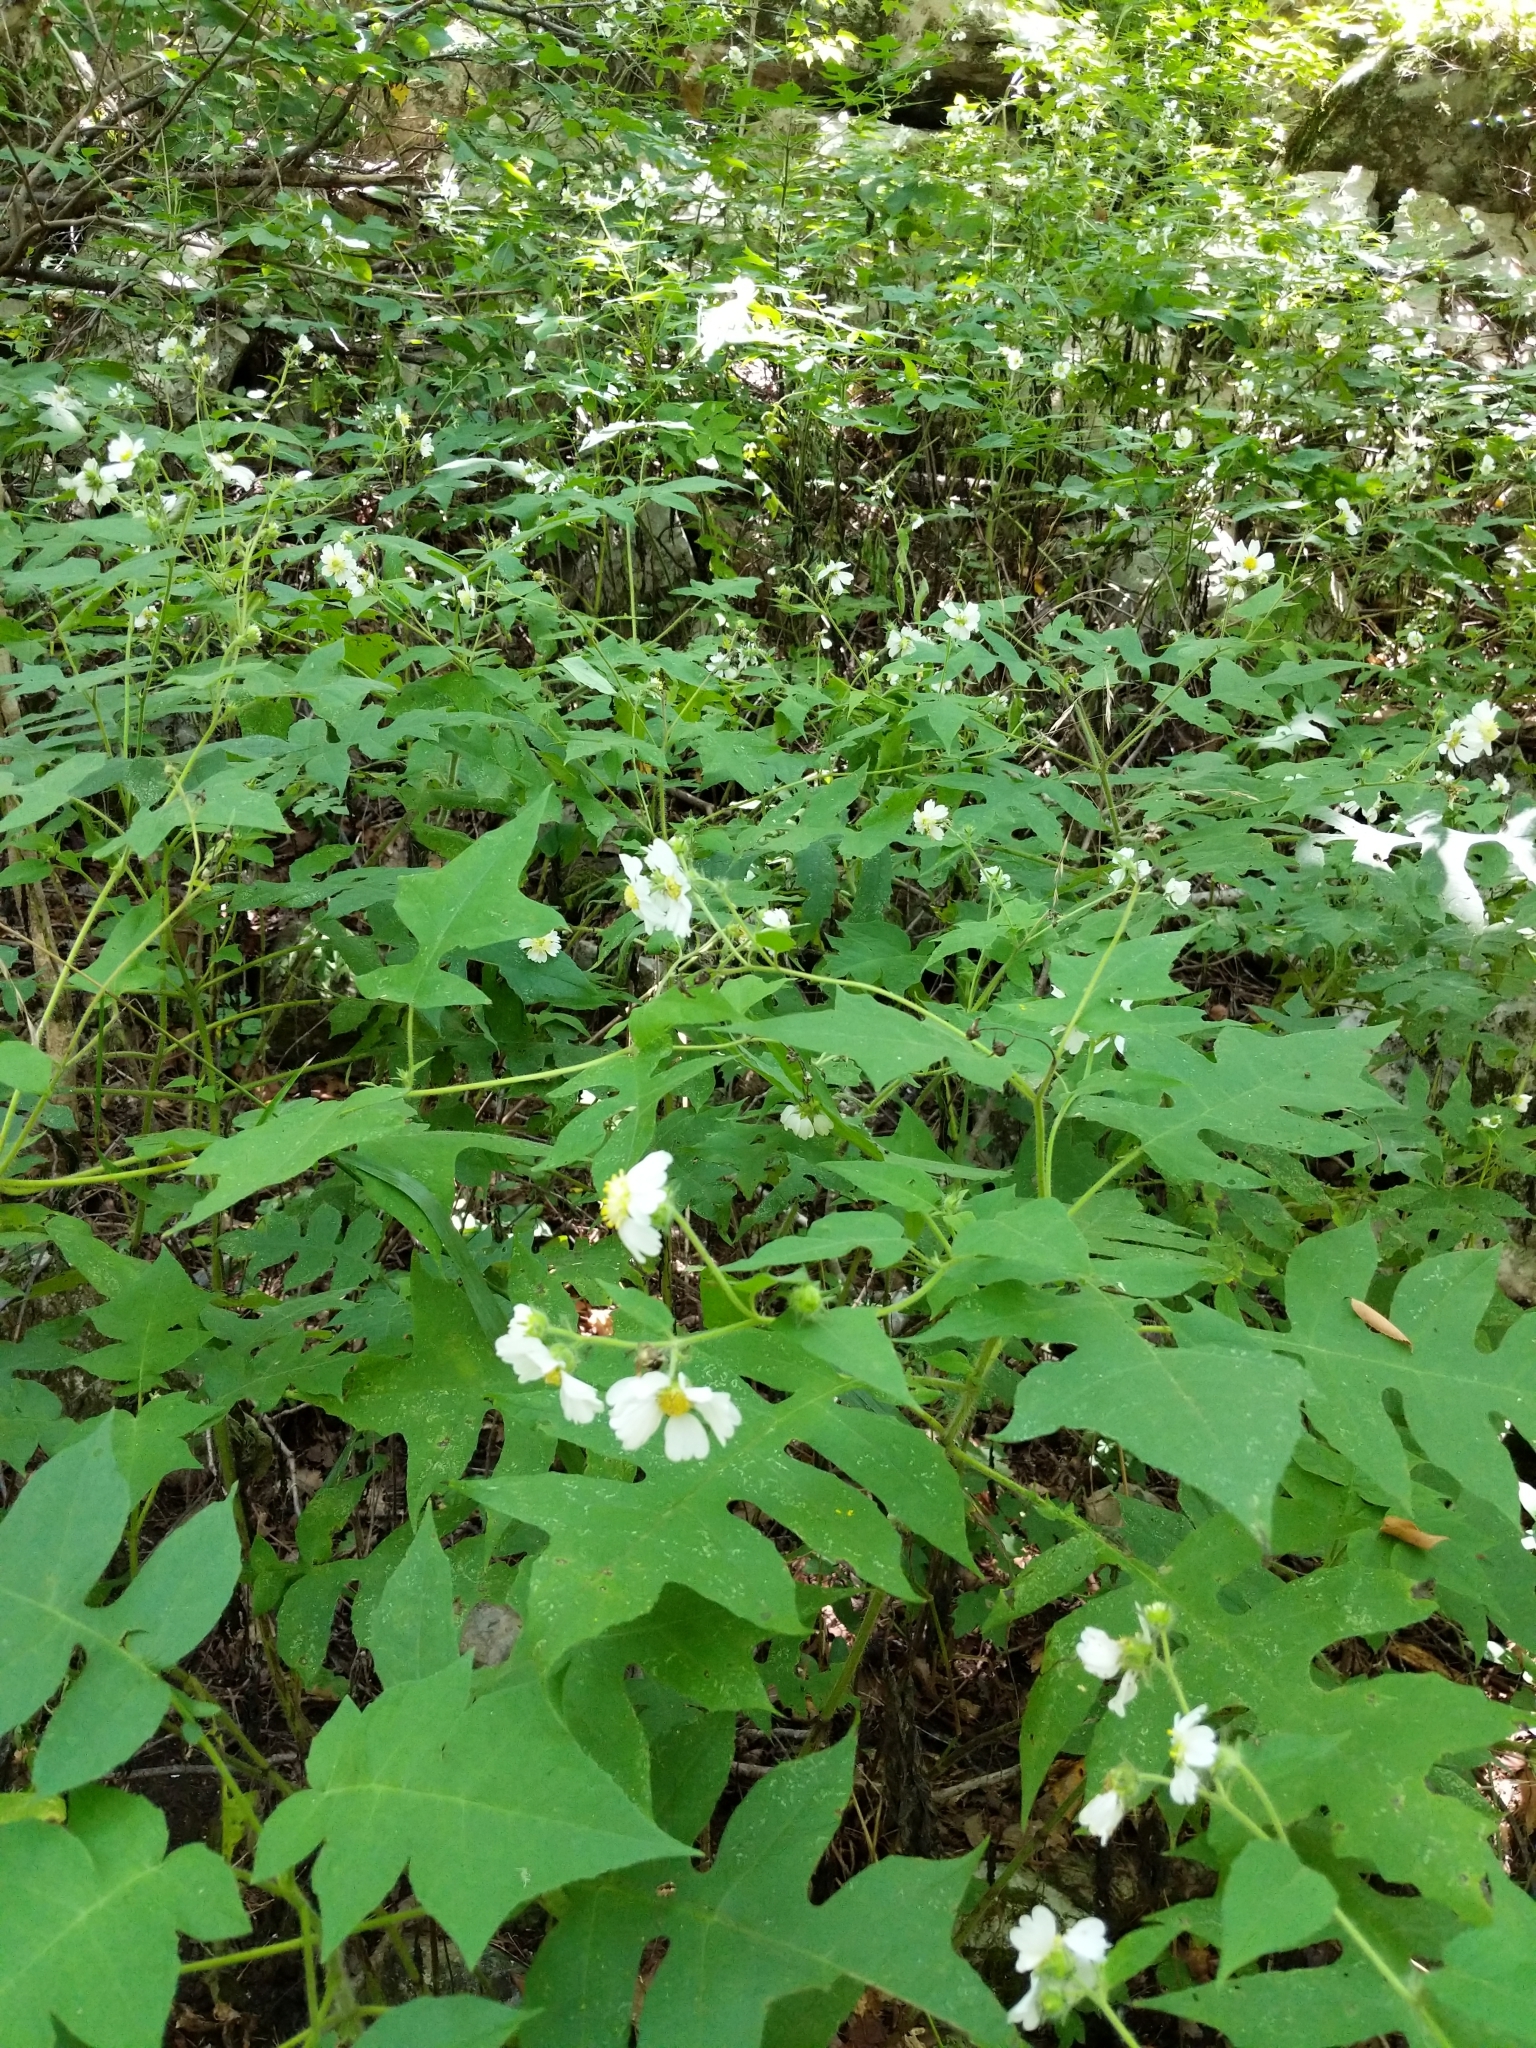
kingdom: Plantae
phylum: Tracheophyta
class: Magnoliopsida
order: Asterales
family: Asteraceae
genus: Polymnia
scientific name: Polymnia canadensis
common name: Pale-flowered leafcup
